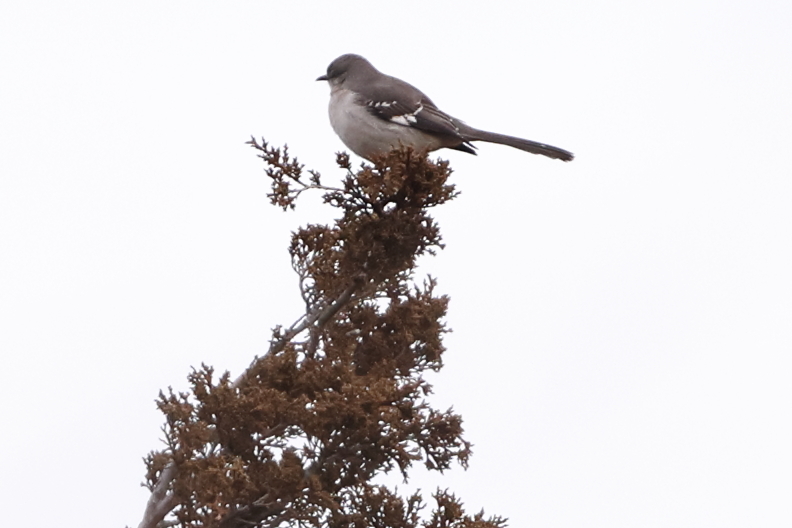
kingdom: Animalia
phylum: Chordata
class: Aves
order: Passeriformes
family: Mimidae
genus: Mimus
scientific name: Mimus polyglottos
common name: Northern mockingbird
